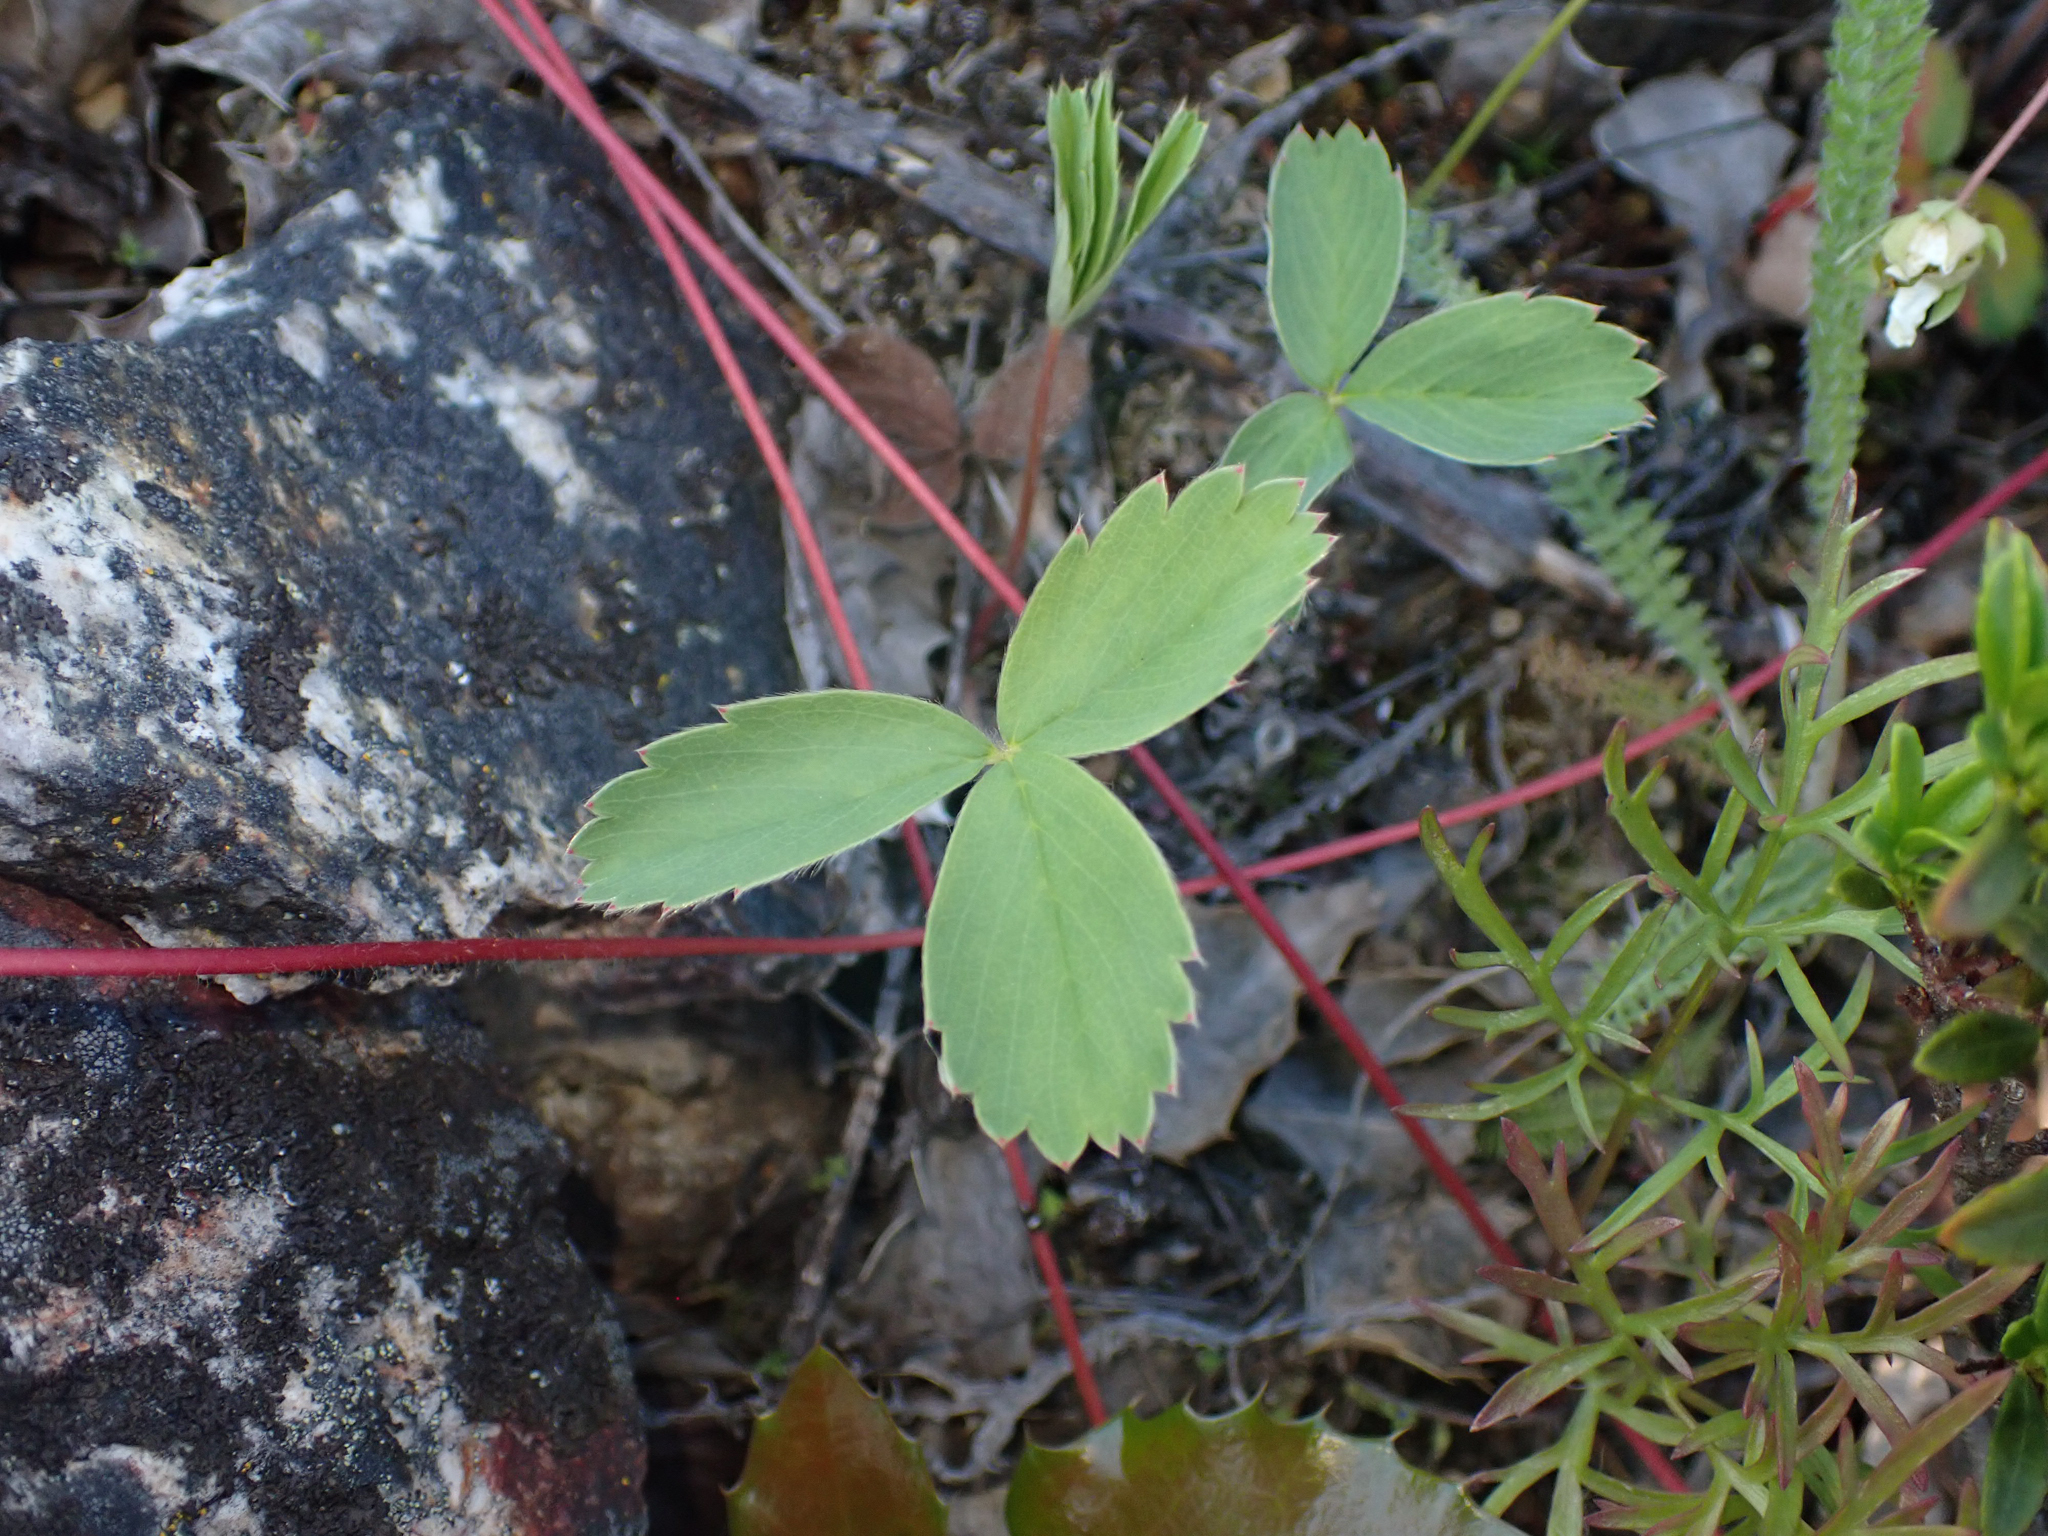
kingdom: Plantae
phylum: Tracheophyta
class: Magnoliopsida
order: Rosales
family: Rosaceae
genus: Fragaria
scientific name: Fragaria virginiana
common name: Thickleaved wild strawberry
